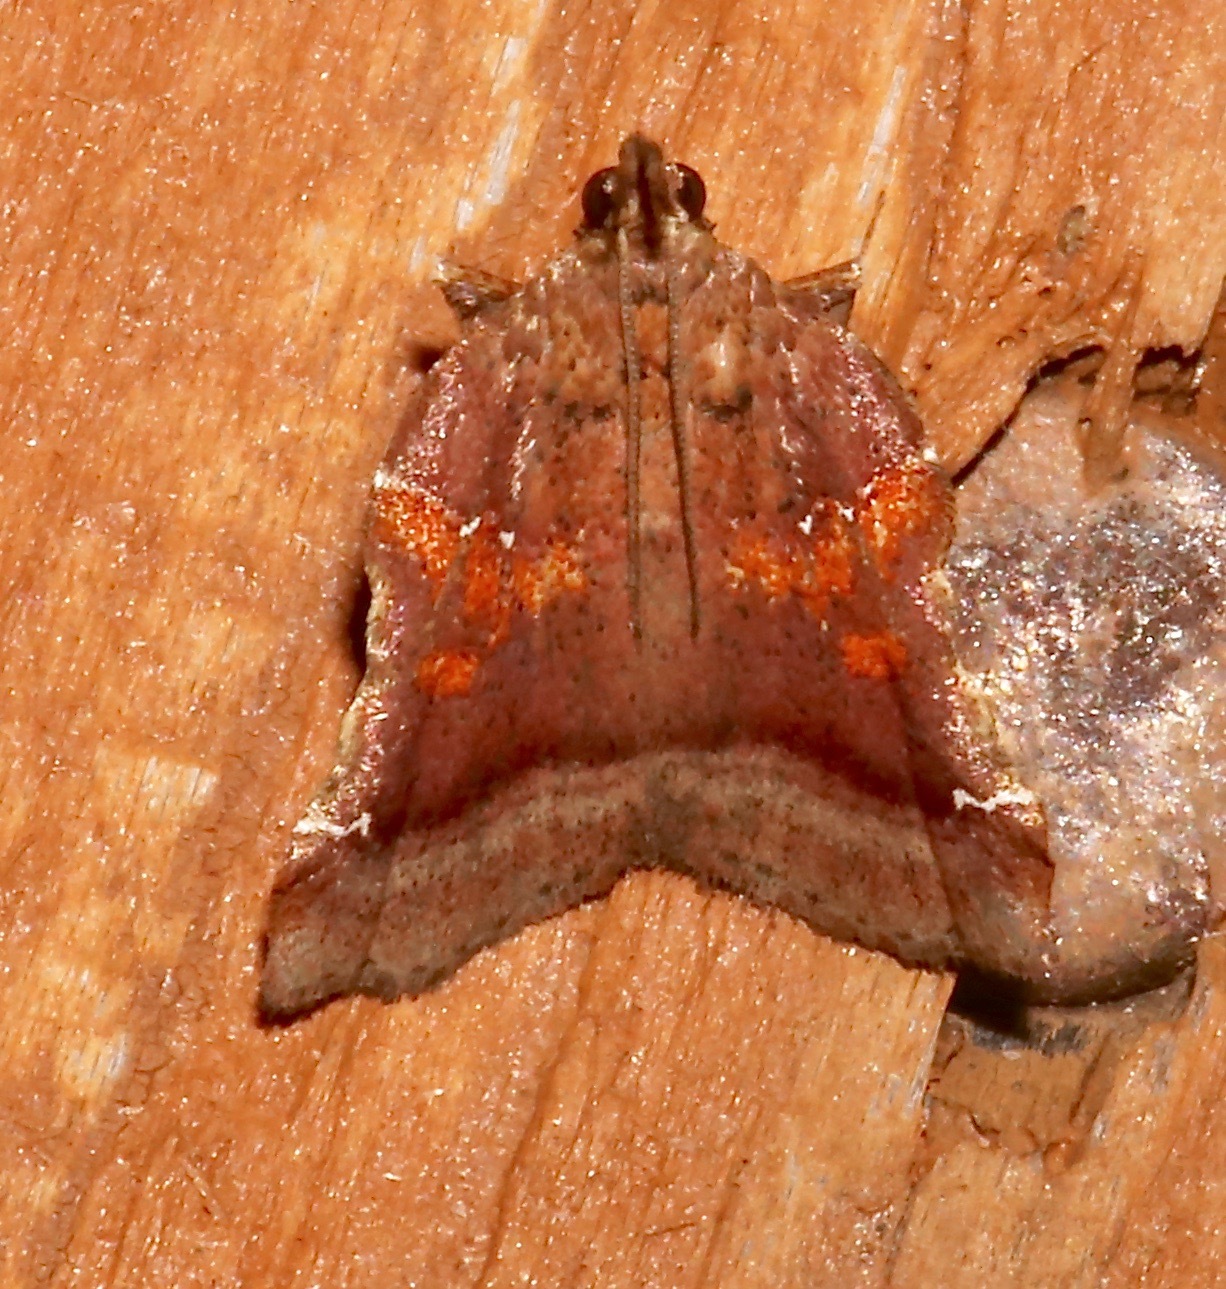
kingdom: Animalia
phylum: Arthropoda
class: Insecta
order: Lepidoptera
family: Pyralidae
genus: Clydonopteron
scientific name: Clydonopteron sacculana
